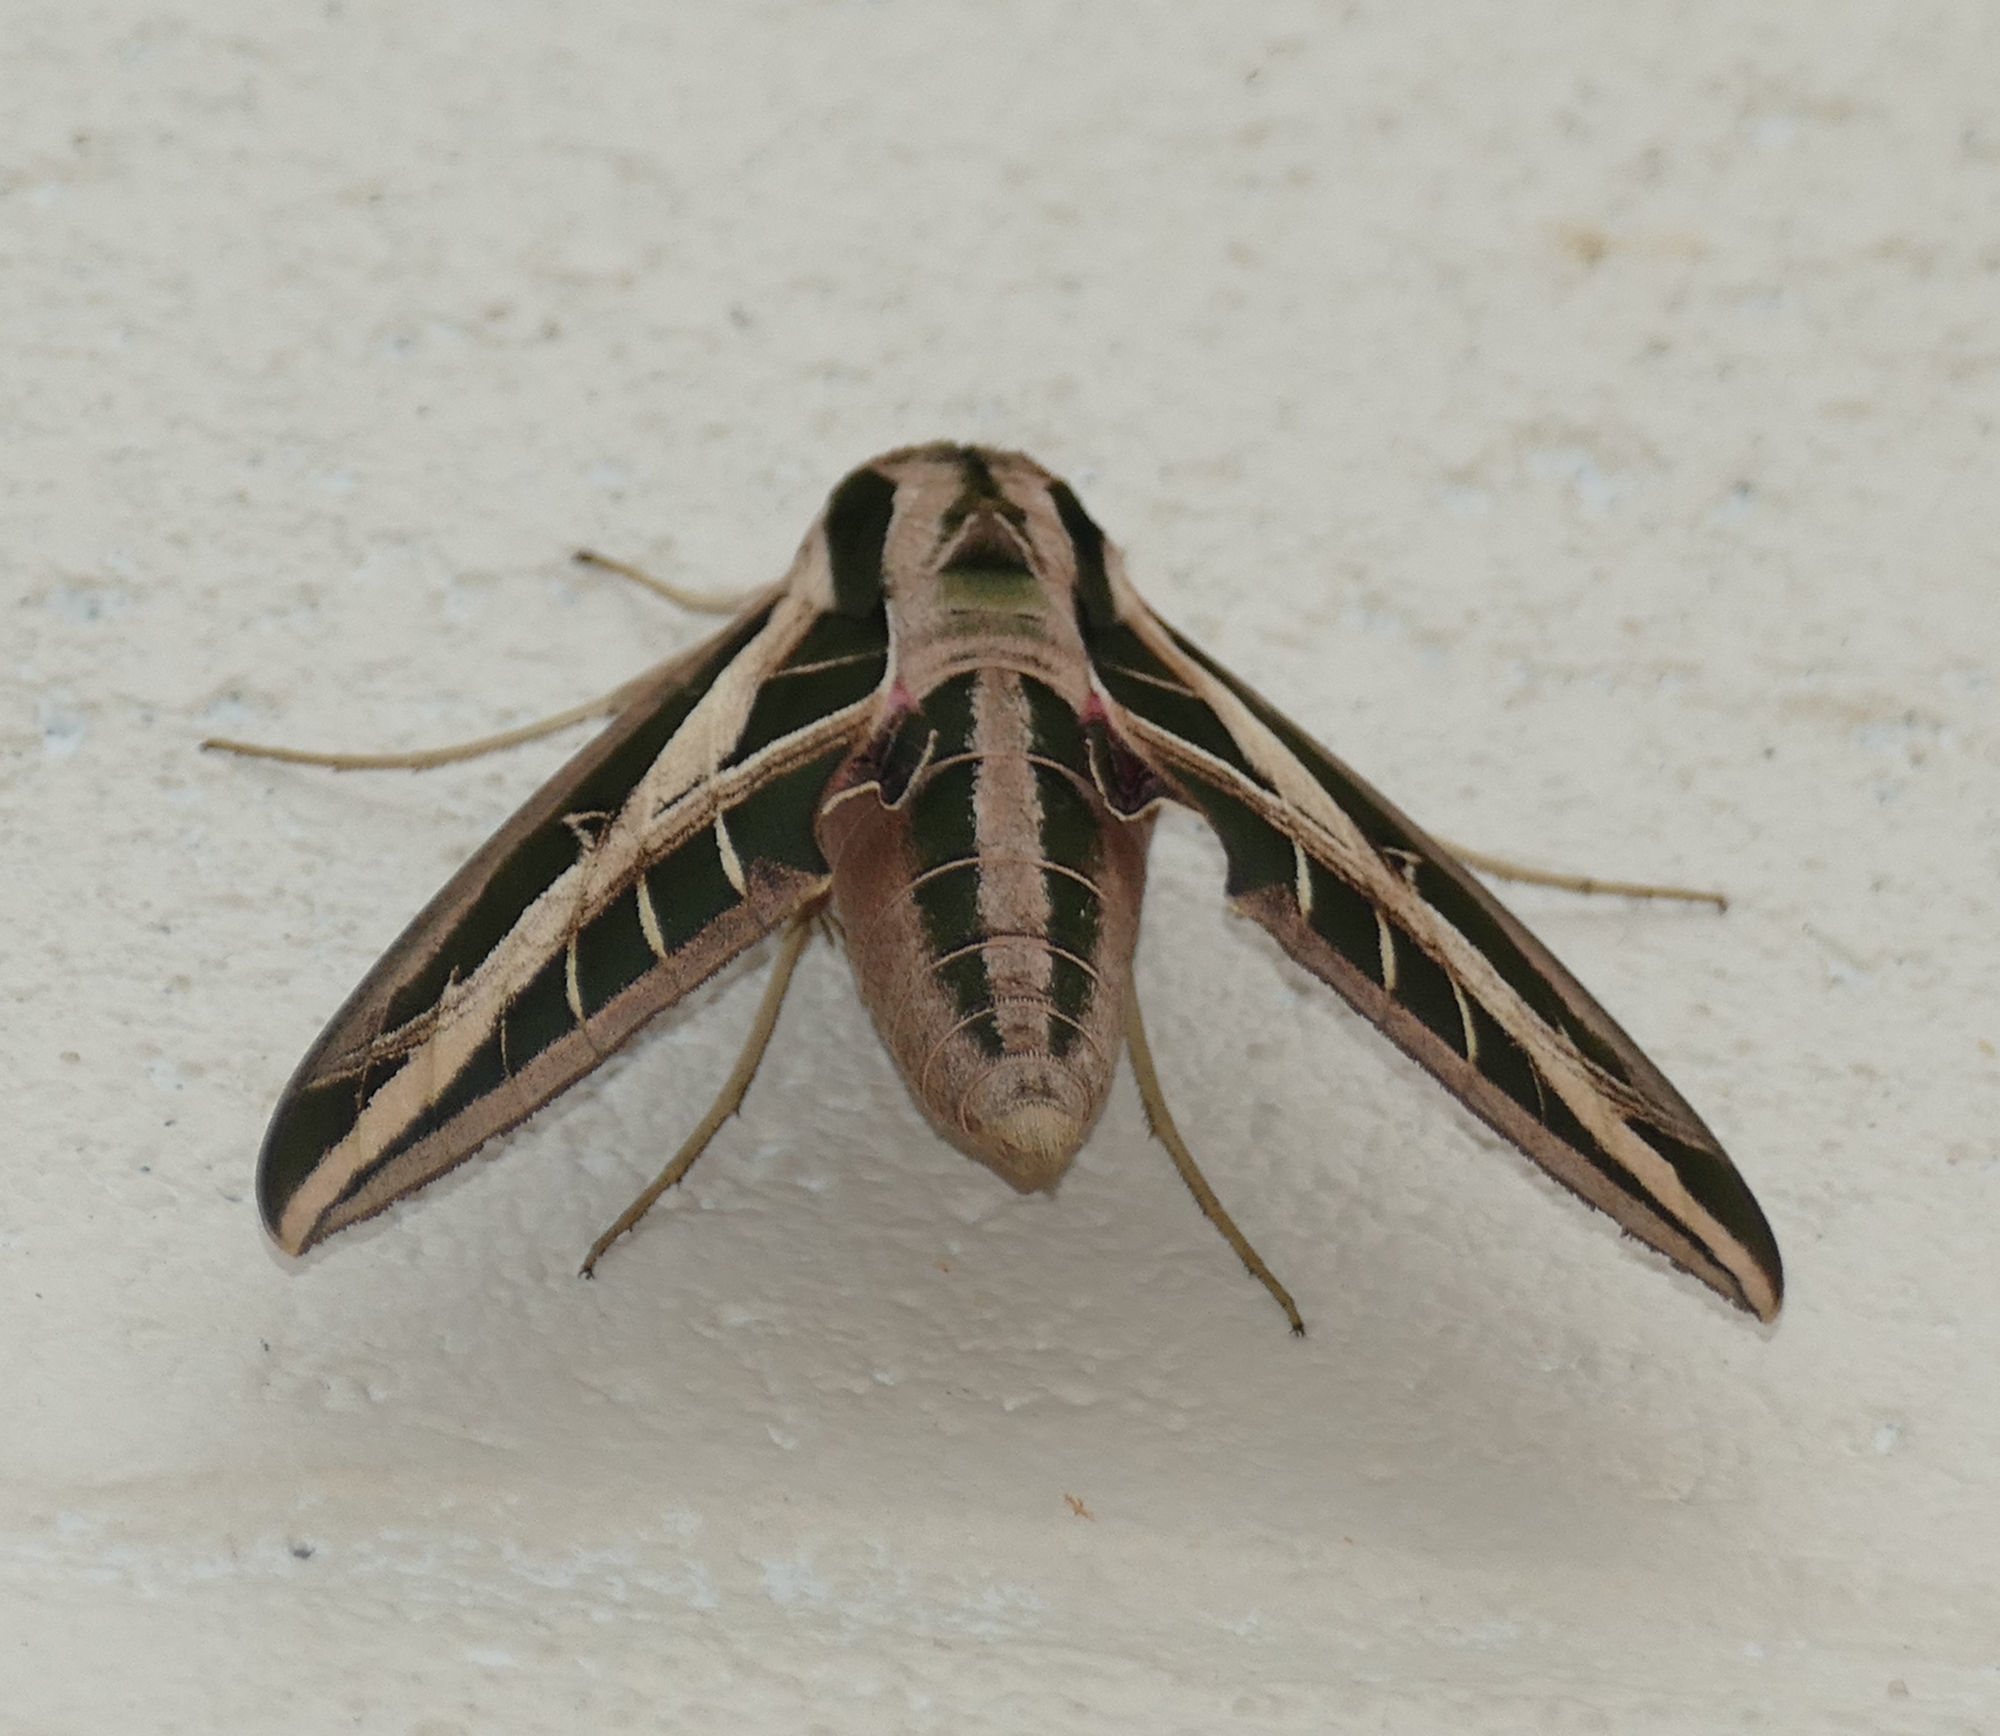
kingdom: Animalia
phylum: Arthropoda
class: Insecta
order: Lepidoptera
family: Sphingidae
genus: Eumorpha
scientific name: Eumorpha fasciatus
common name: Banded sphinx
